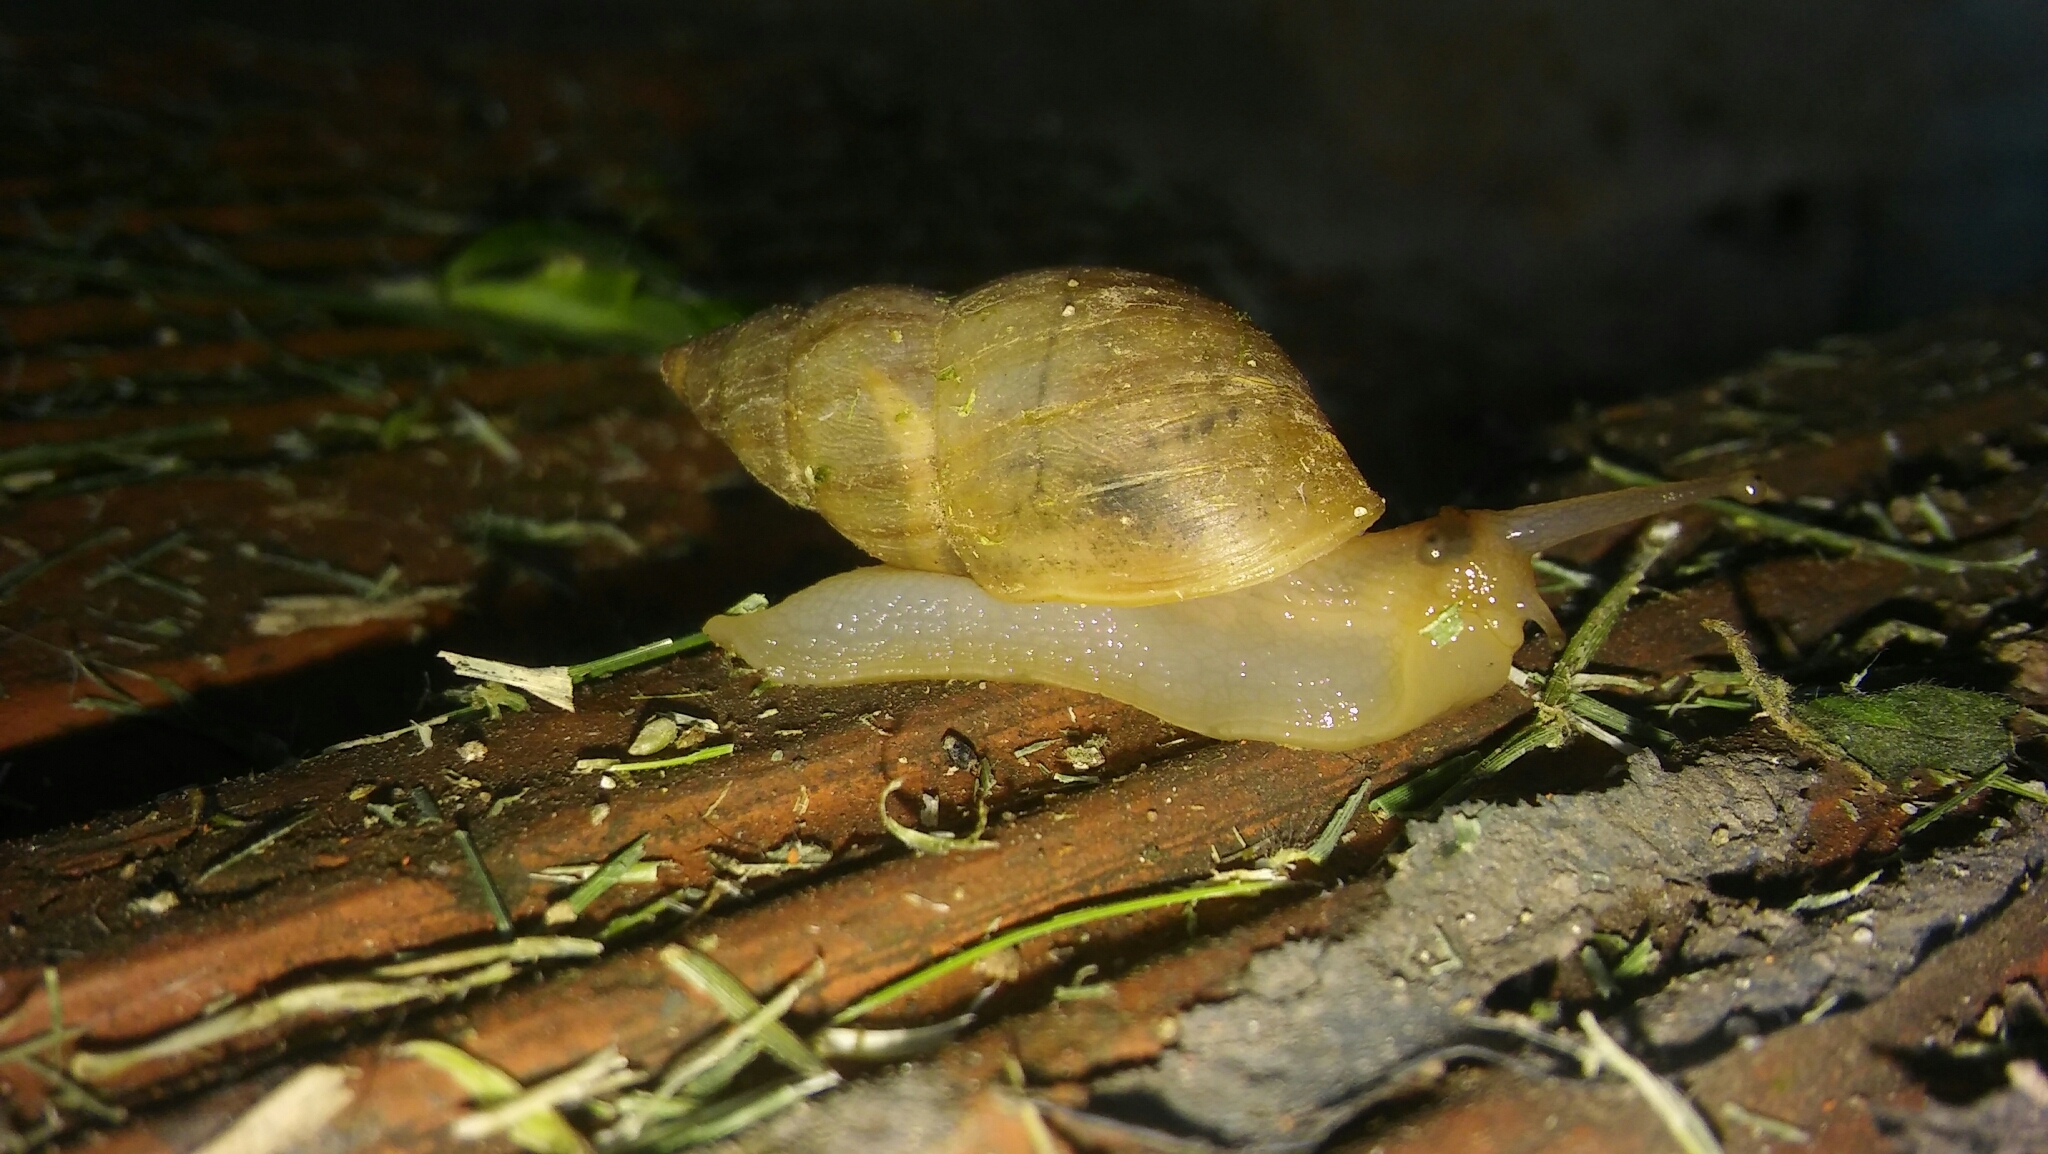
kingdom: Animalia
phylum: Mollusca
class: Gastropoda
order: Stylommatophora
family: Bulimulidae
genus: Bulimulus
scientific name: Bulimulus
